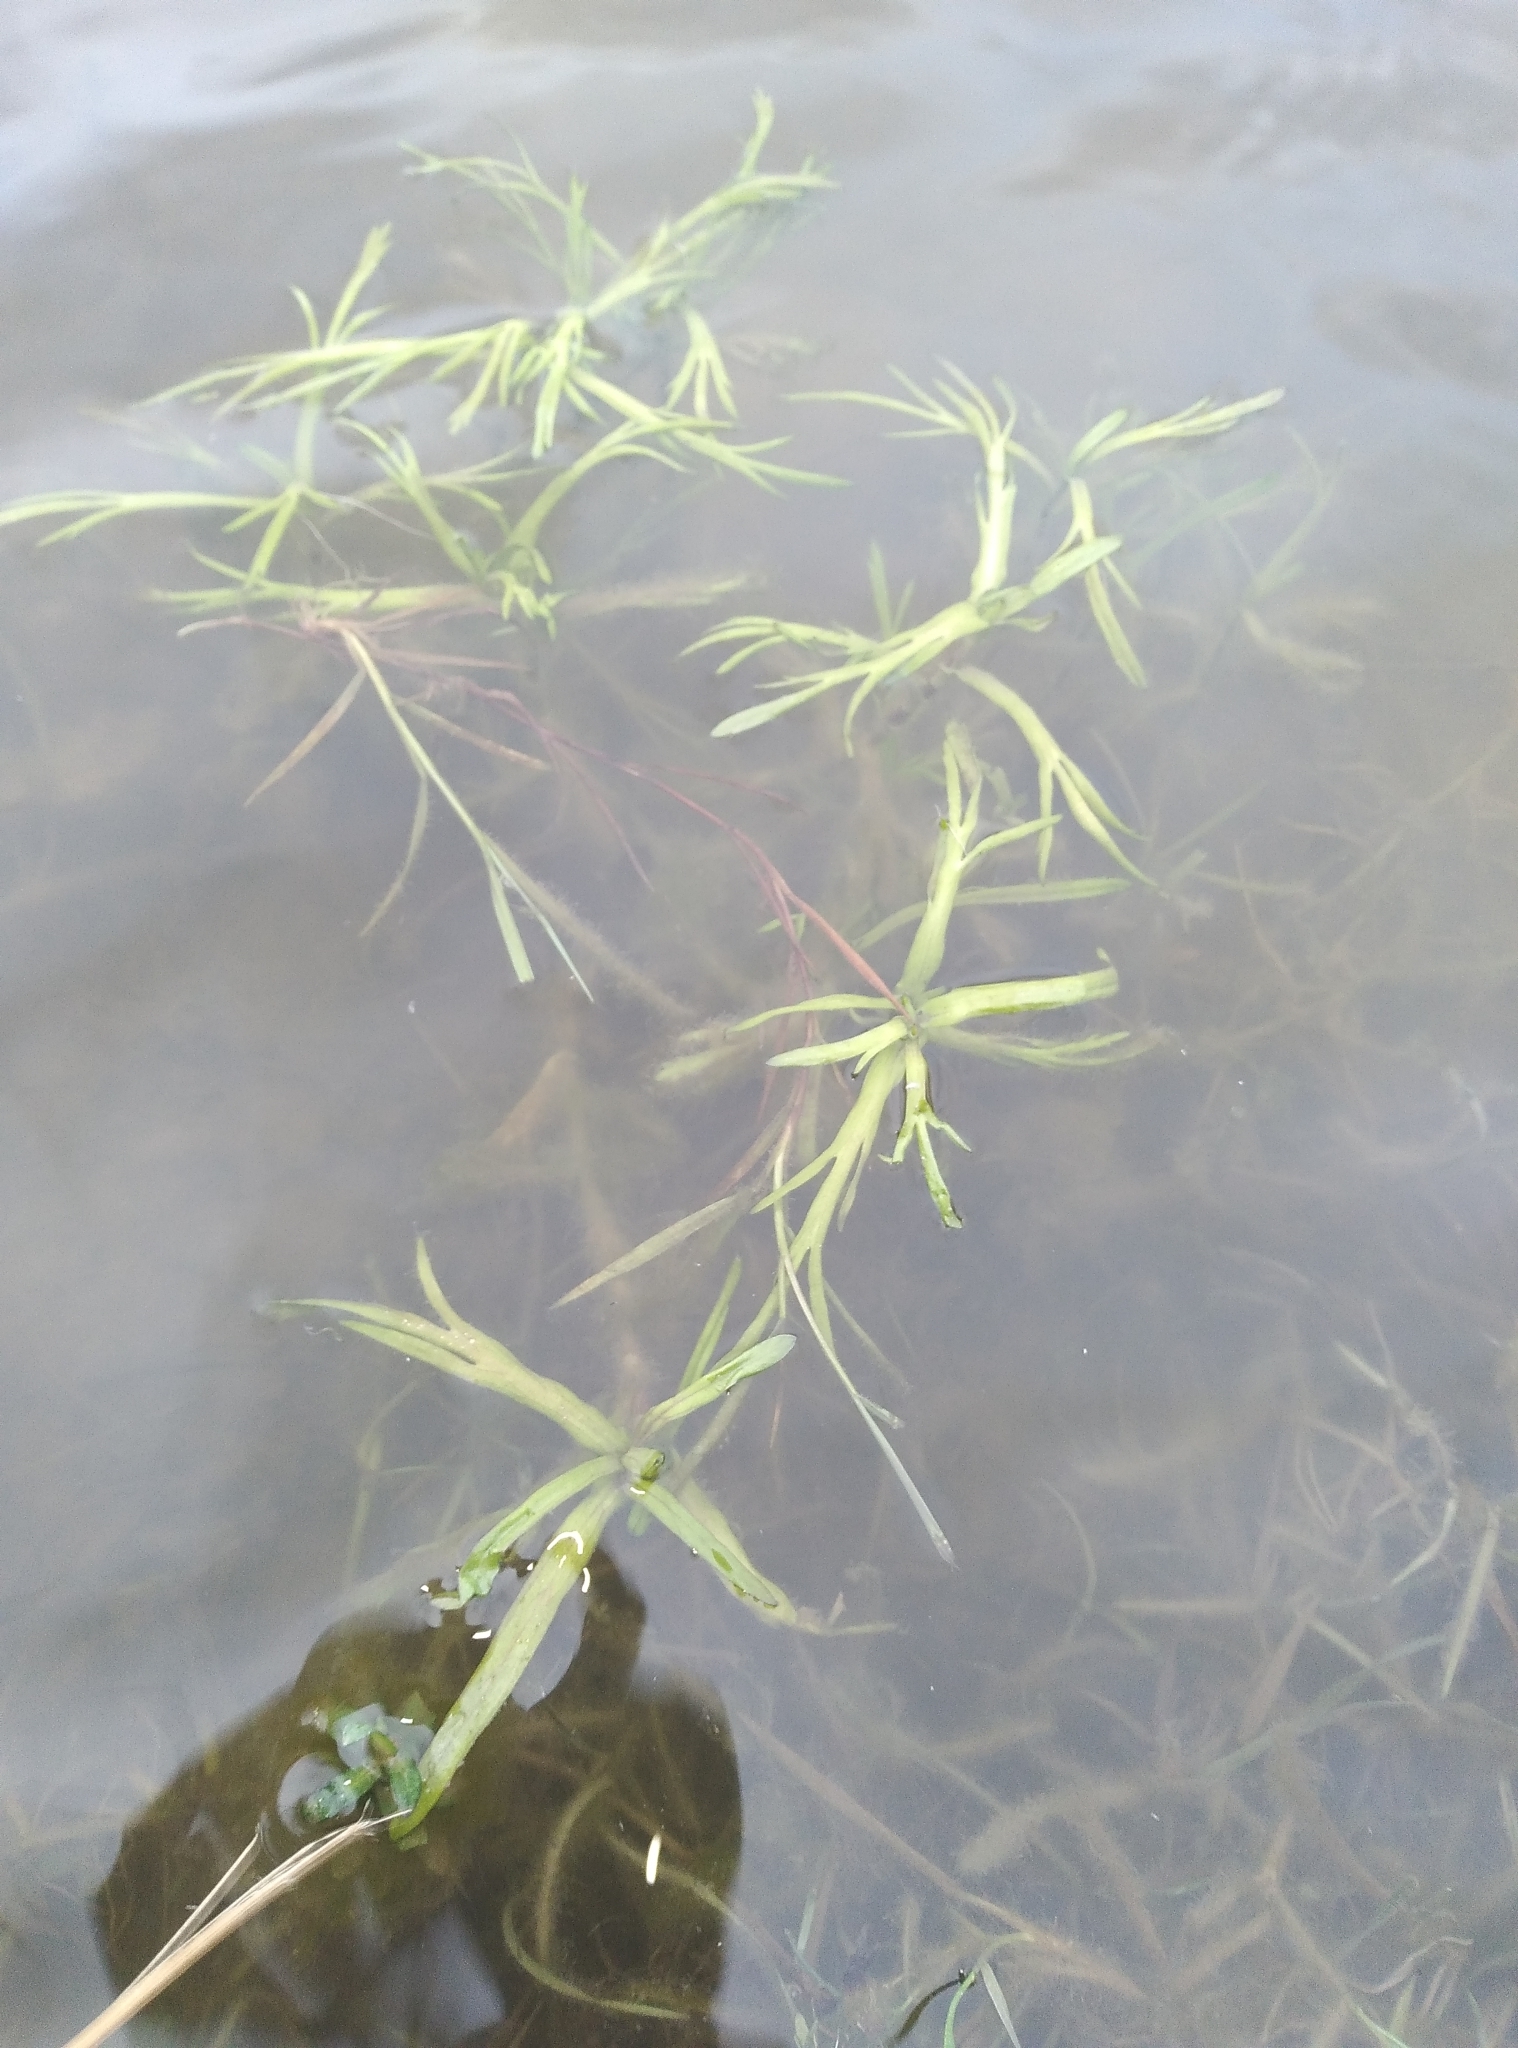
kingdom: Plantae
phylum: Tracheophyta
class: Magnoliopsida
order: Asterales
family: Asteraceae
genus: Cotula
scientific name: Cotula coronopifolia
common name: Buttonweed
